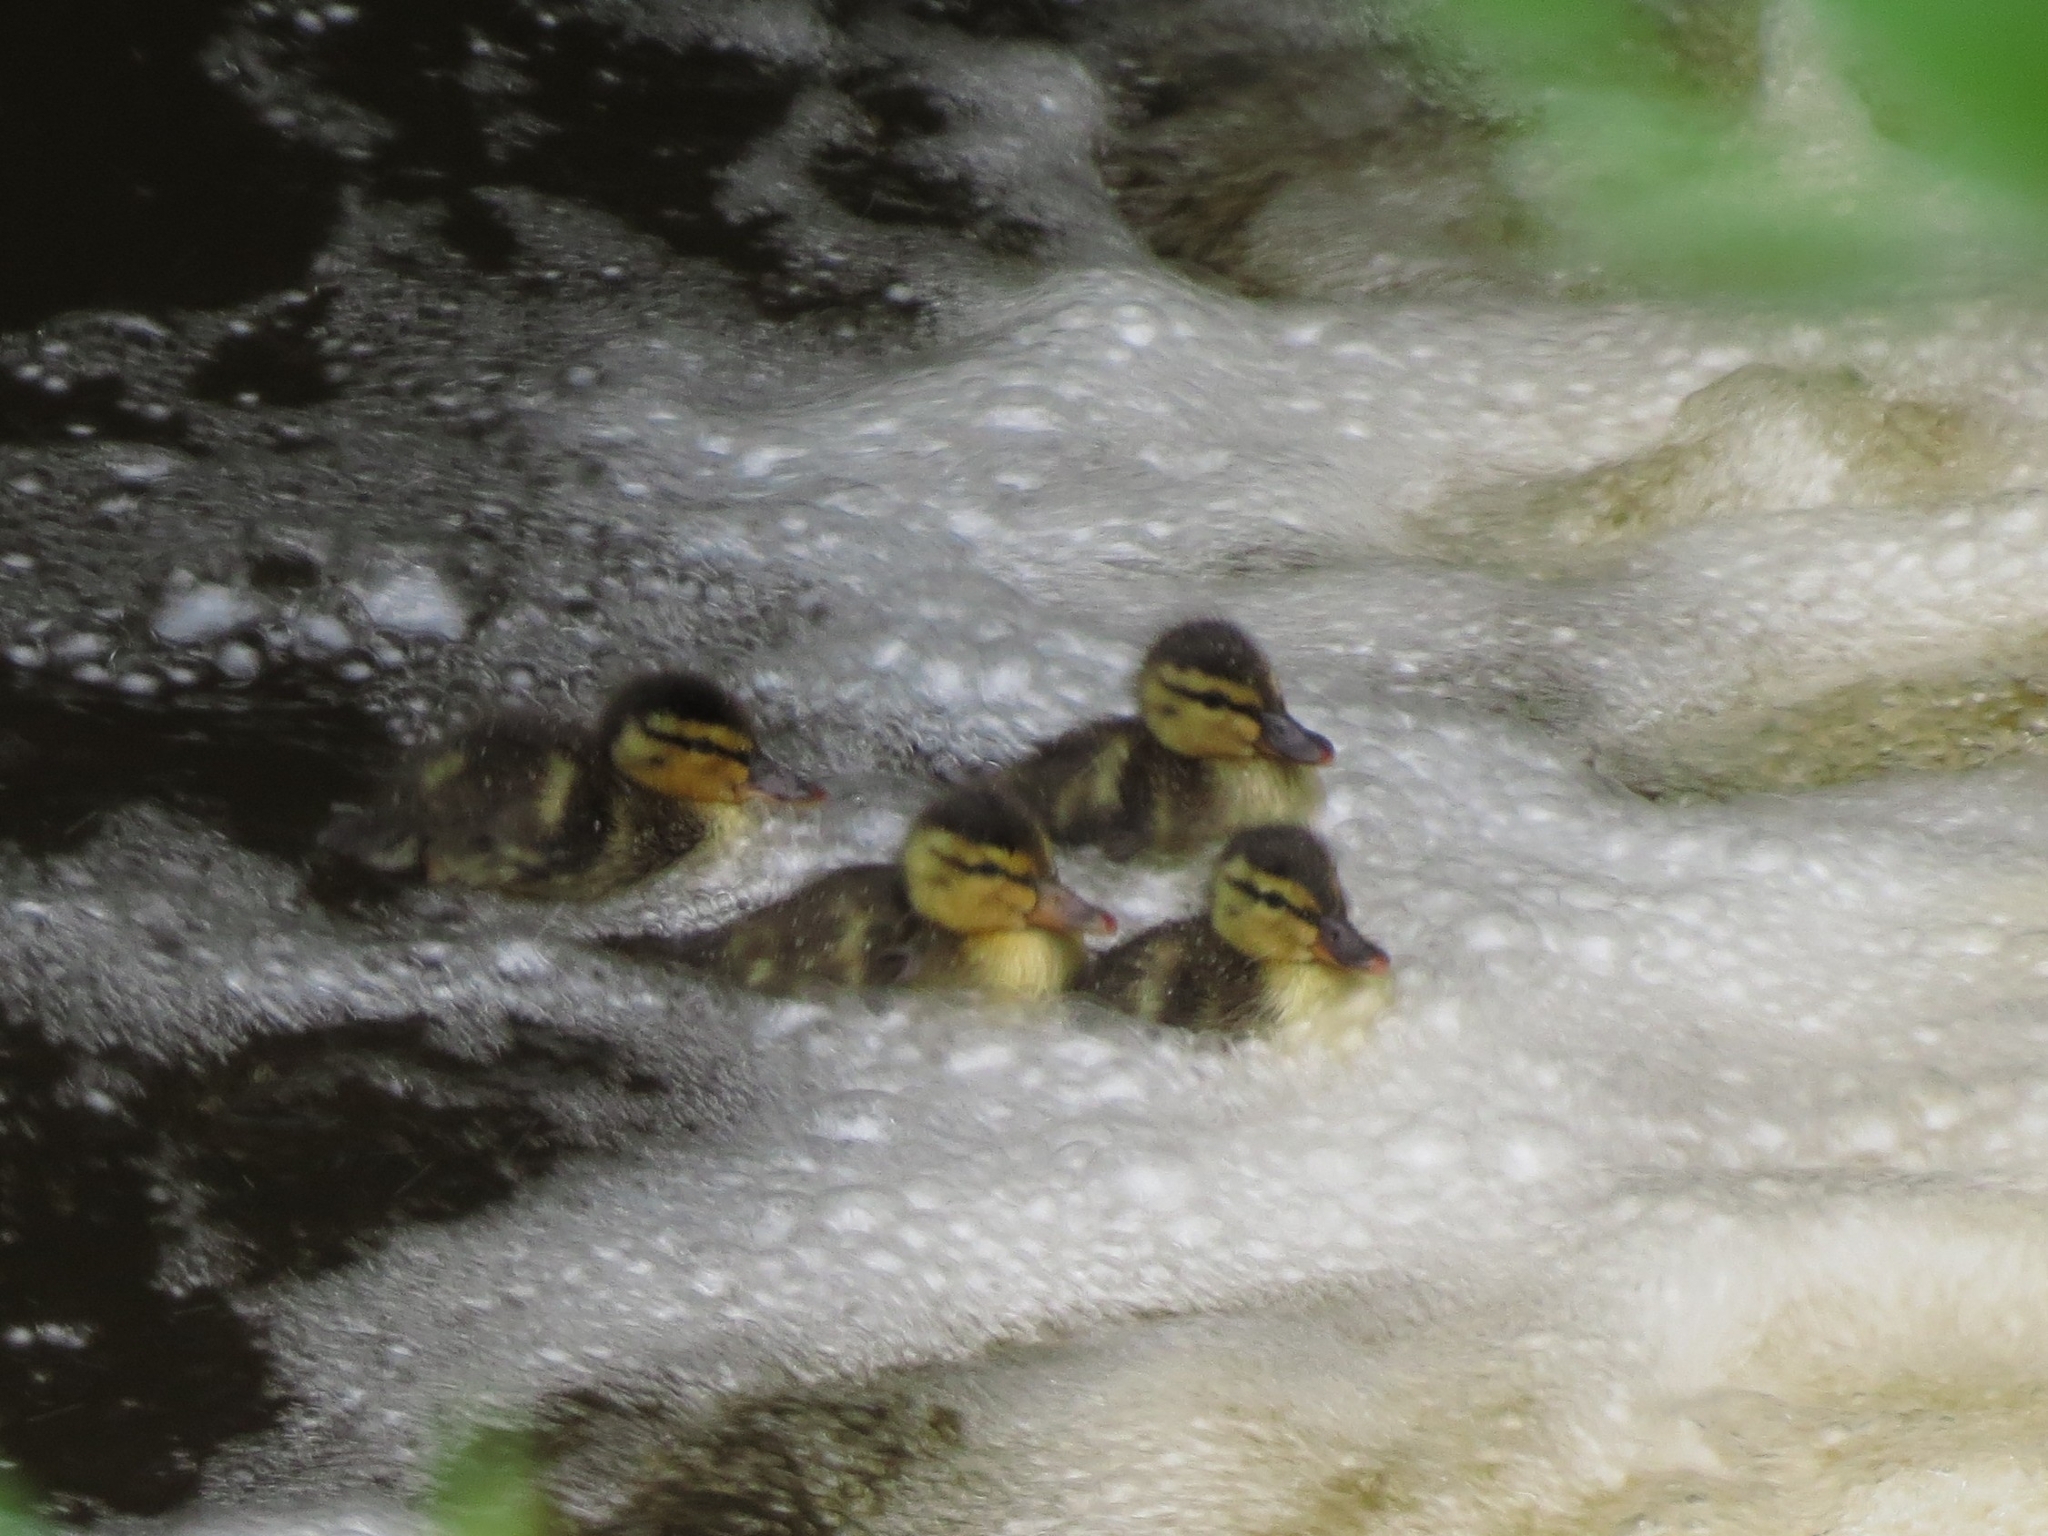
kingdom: Animalia
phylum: Chordata
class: Aves
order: Anseriformes
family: Anatidae
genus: Anas
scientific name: Anas platyrhynchos
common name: Mallard
